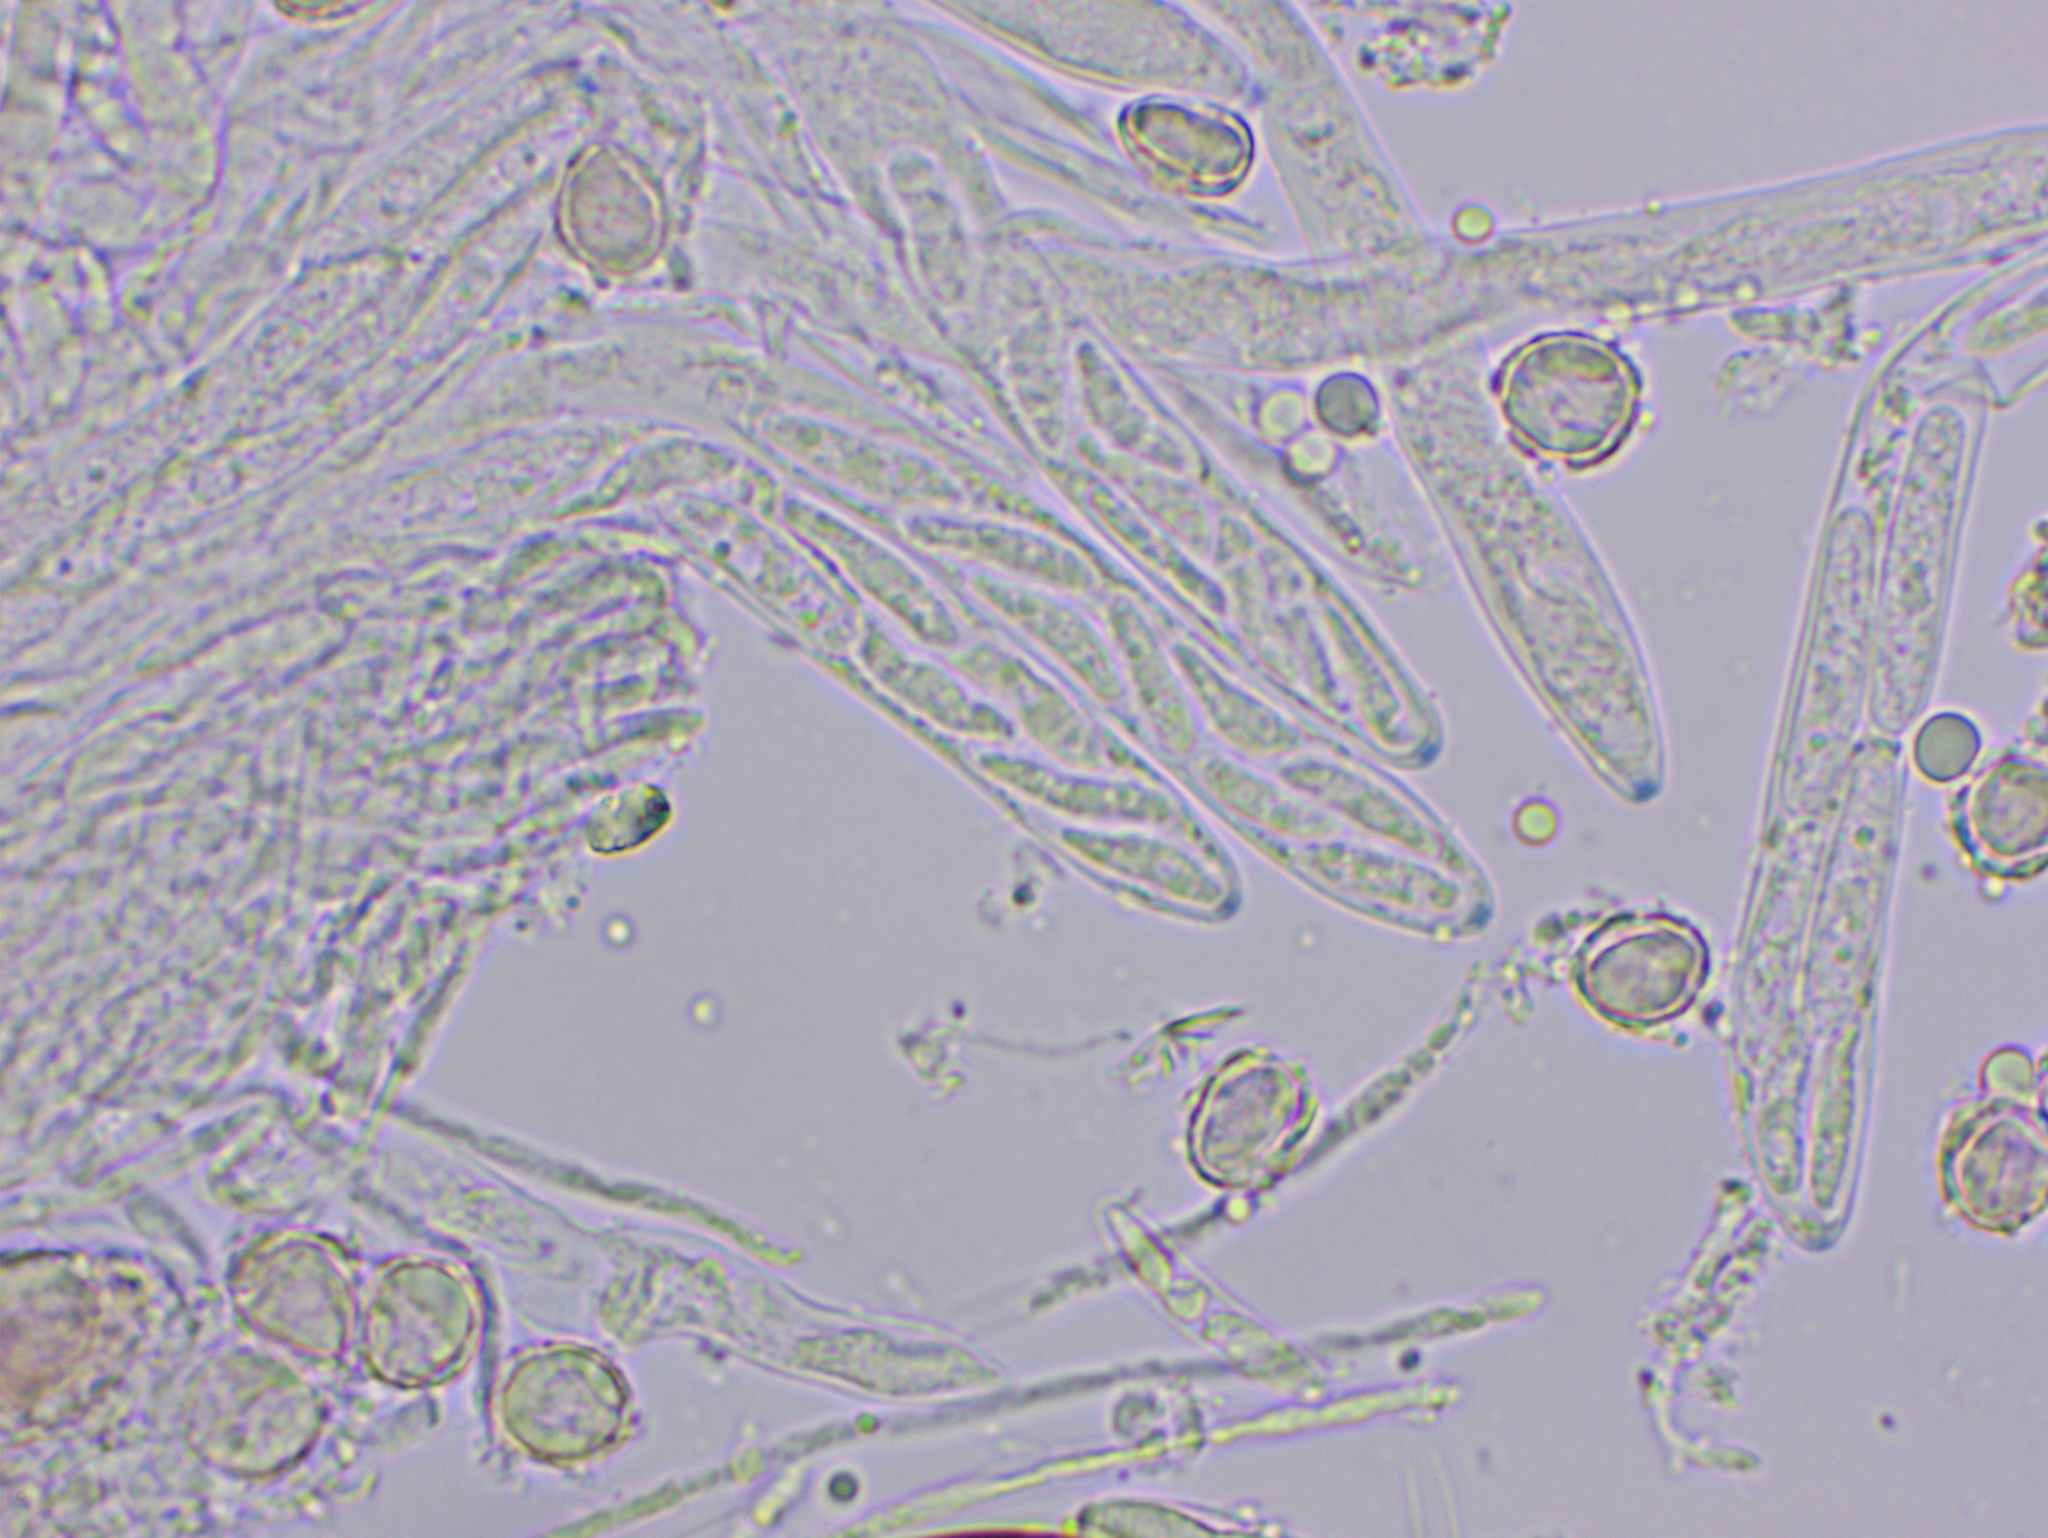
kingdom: Fungi
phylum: Ascomycota
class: Leotiomycetes
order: Helotiales
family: Cenangiaceae
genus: Mitrula
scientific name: Mitrula paludosa
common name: Bog beacon
